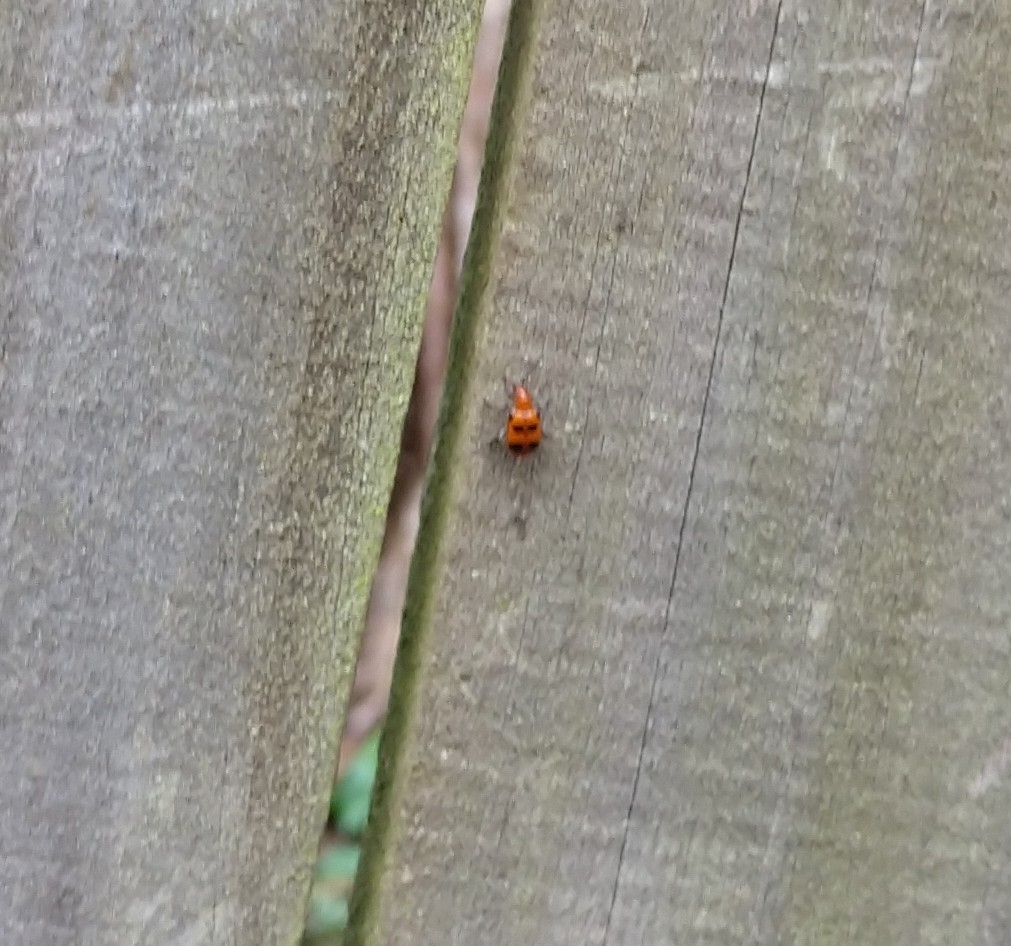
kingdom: Animalia
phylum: Arthropoda
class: Insecta
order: Coleoptera
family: Chrysomelidae
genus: Neolema
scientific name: Neolema sexpunctata
